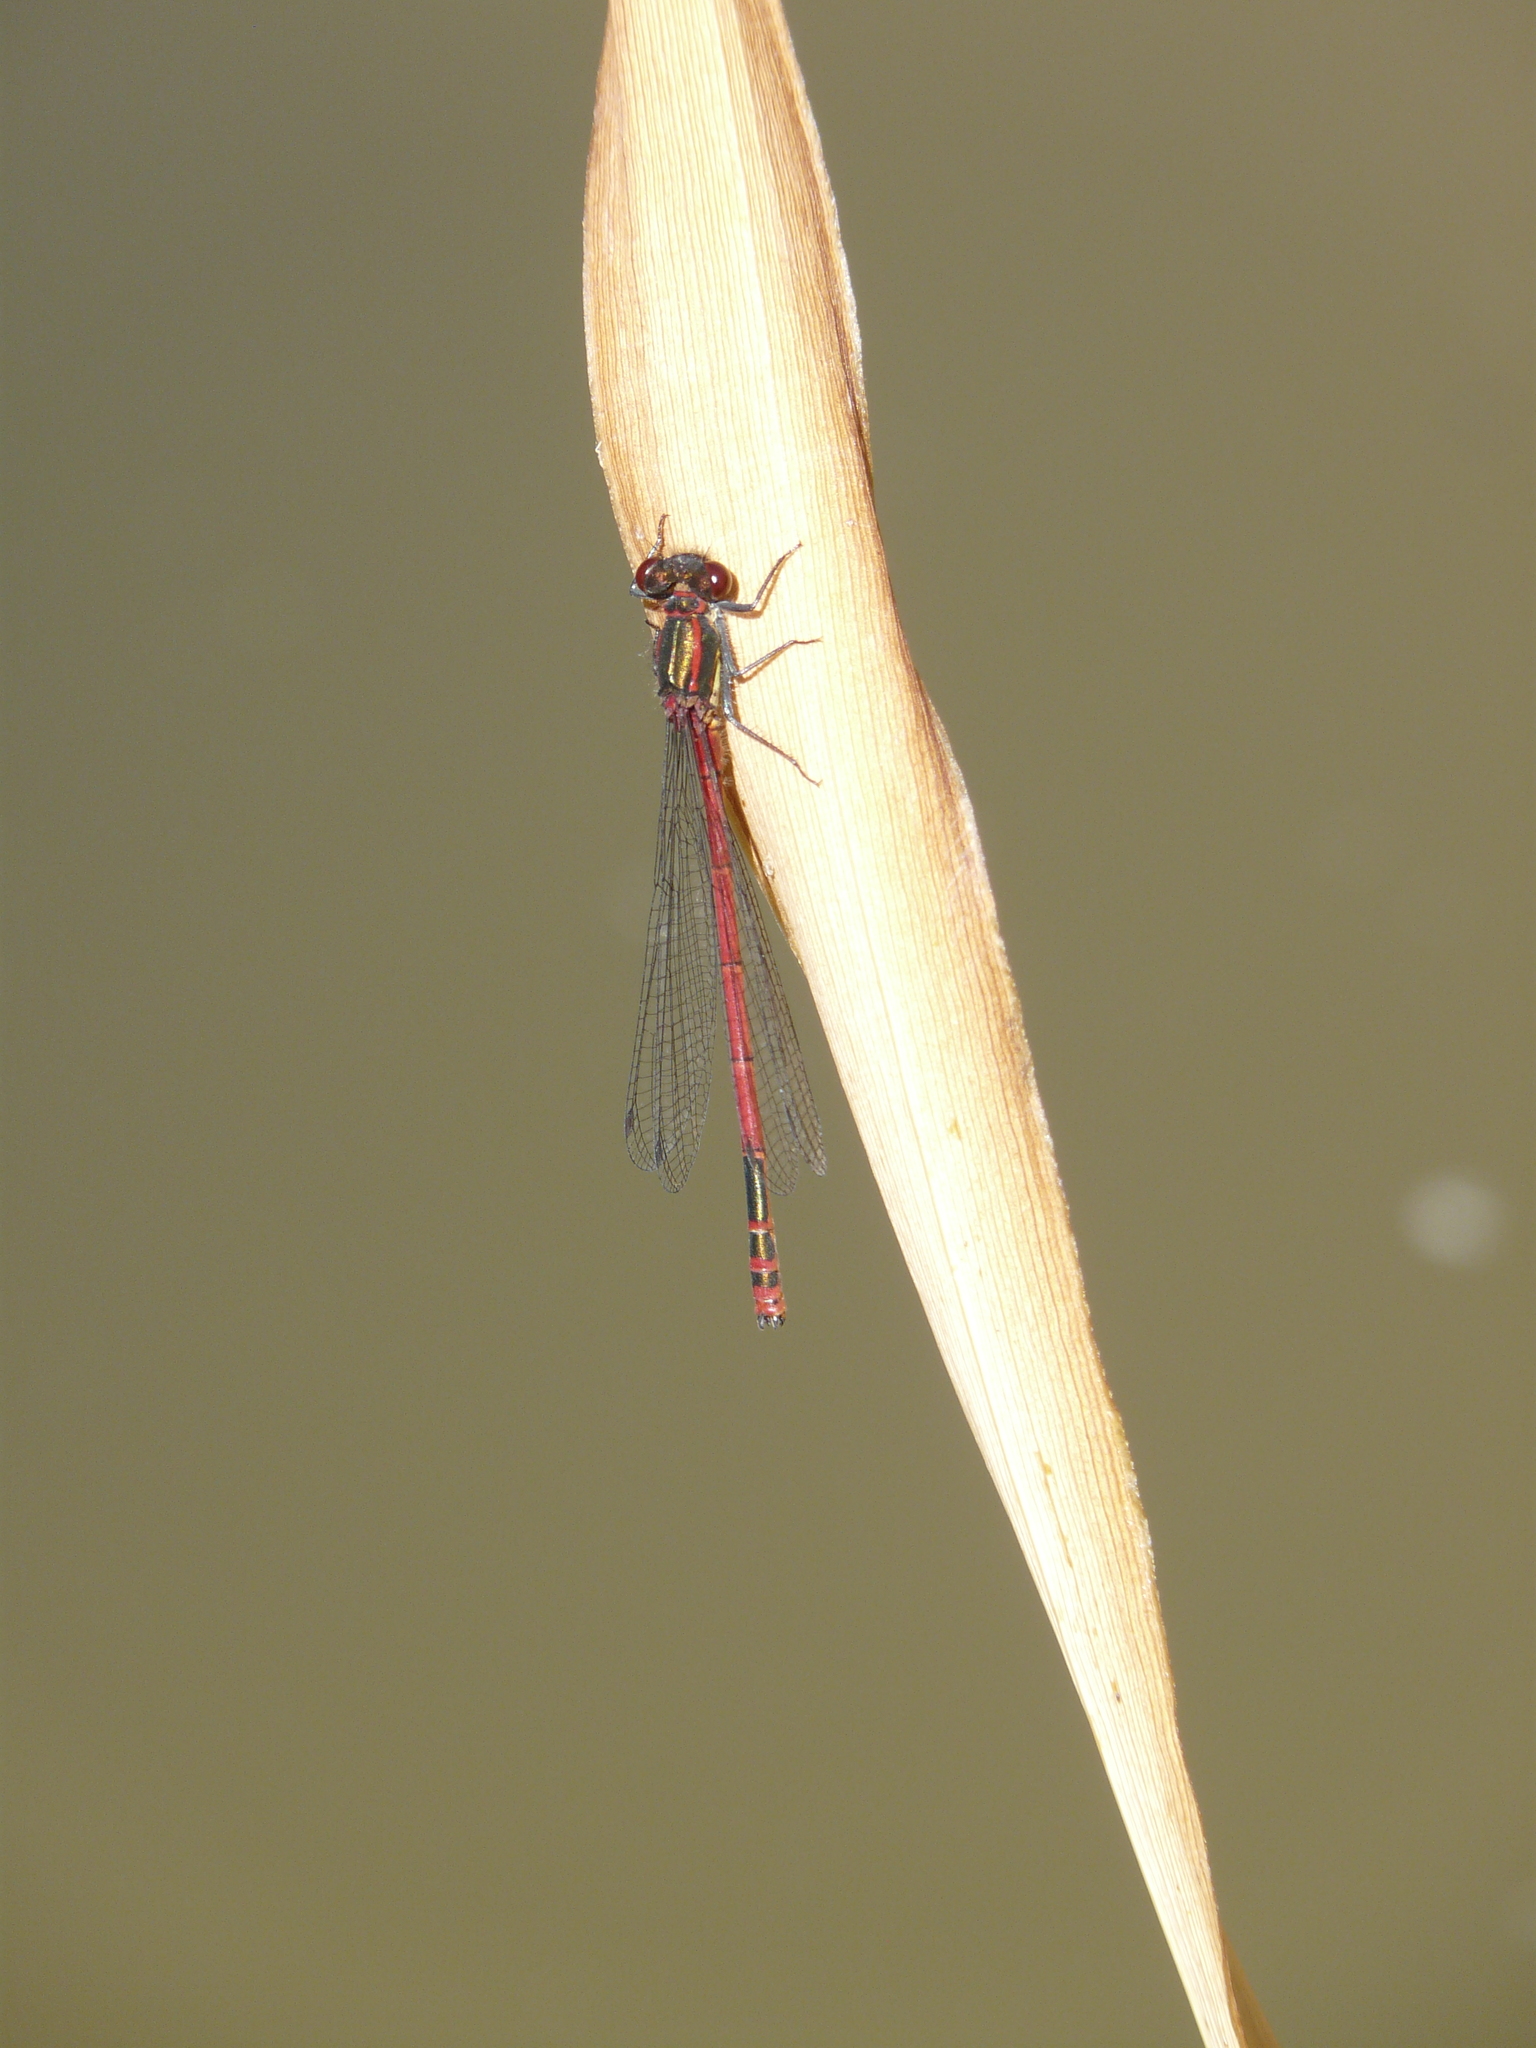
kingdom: Animalia
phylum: Arthropoda
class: Insecta
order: Odonata
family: Coenagrionidae
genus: Pyrrhosoma
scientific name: Pyrrhosoma nymphula
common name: Large red damsel
